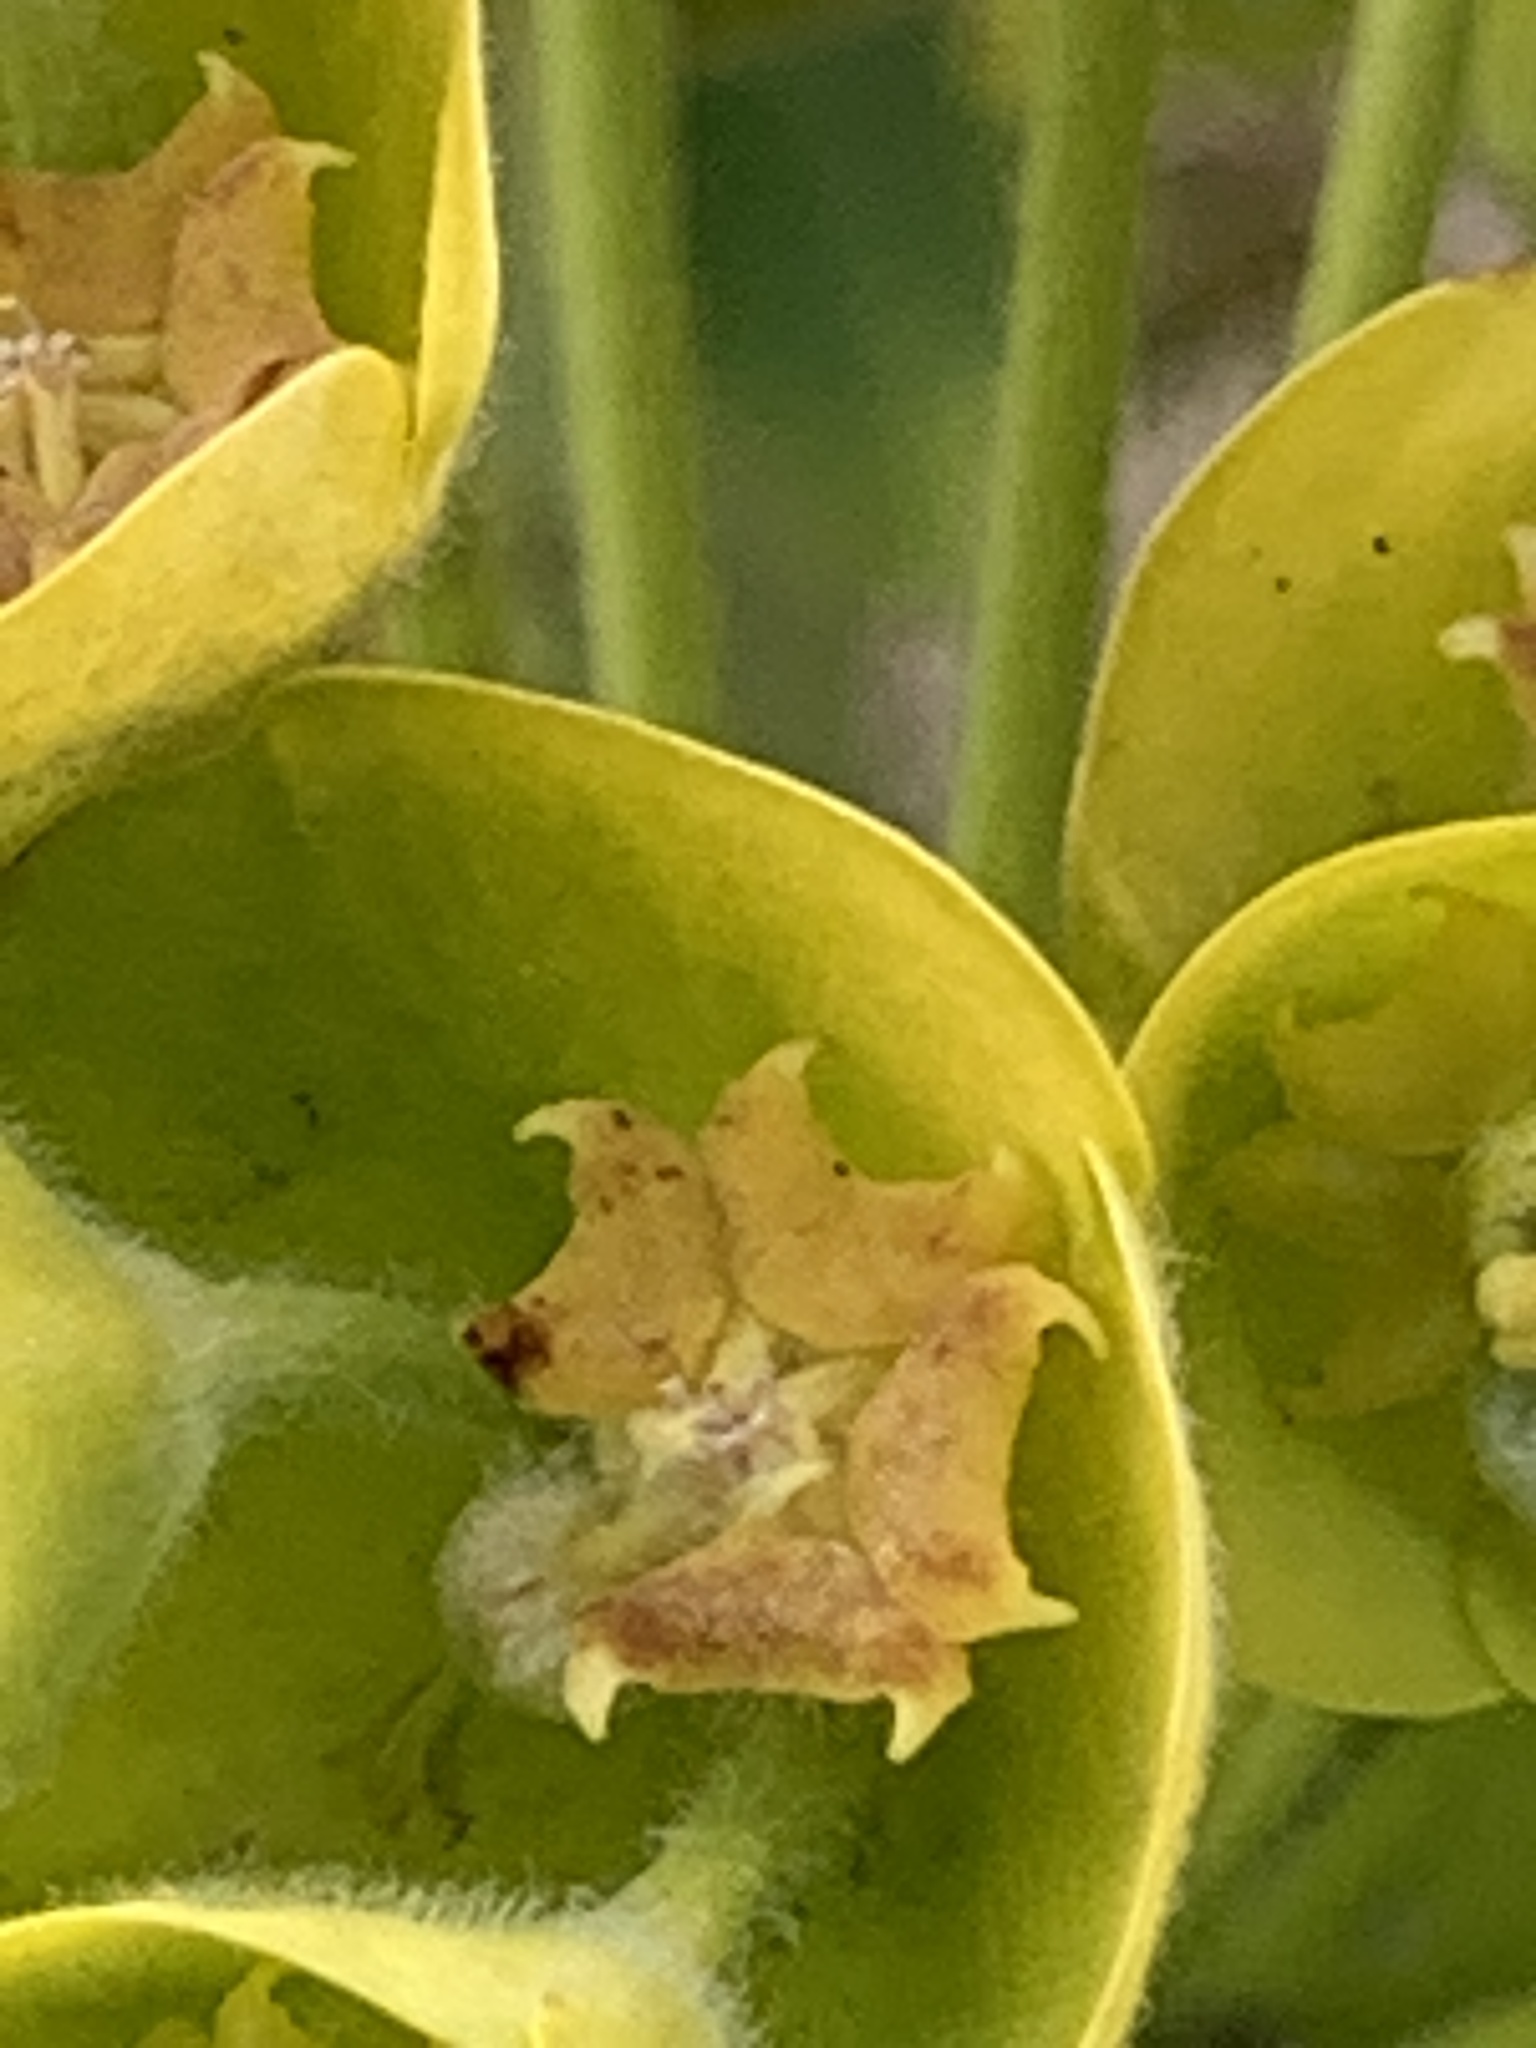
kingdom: Plantae
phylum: Tracheophyta
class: Magnoliopsida
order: Malpighiales
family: Euphorbiaceae
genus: Euphorbia
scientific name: Euphorbia characias
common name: Mediterranean spurge
